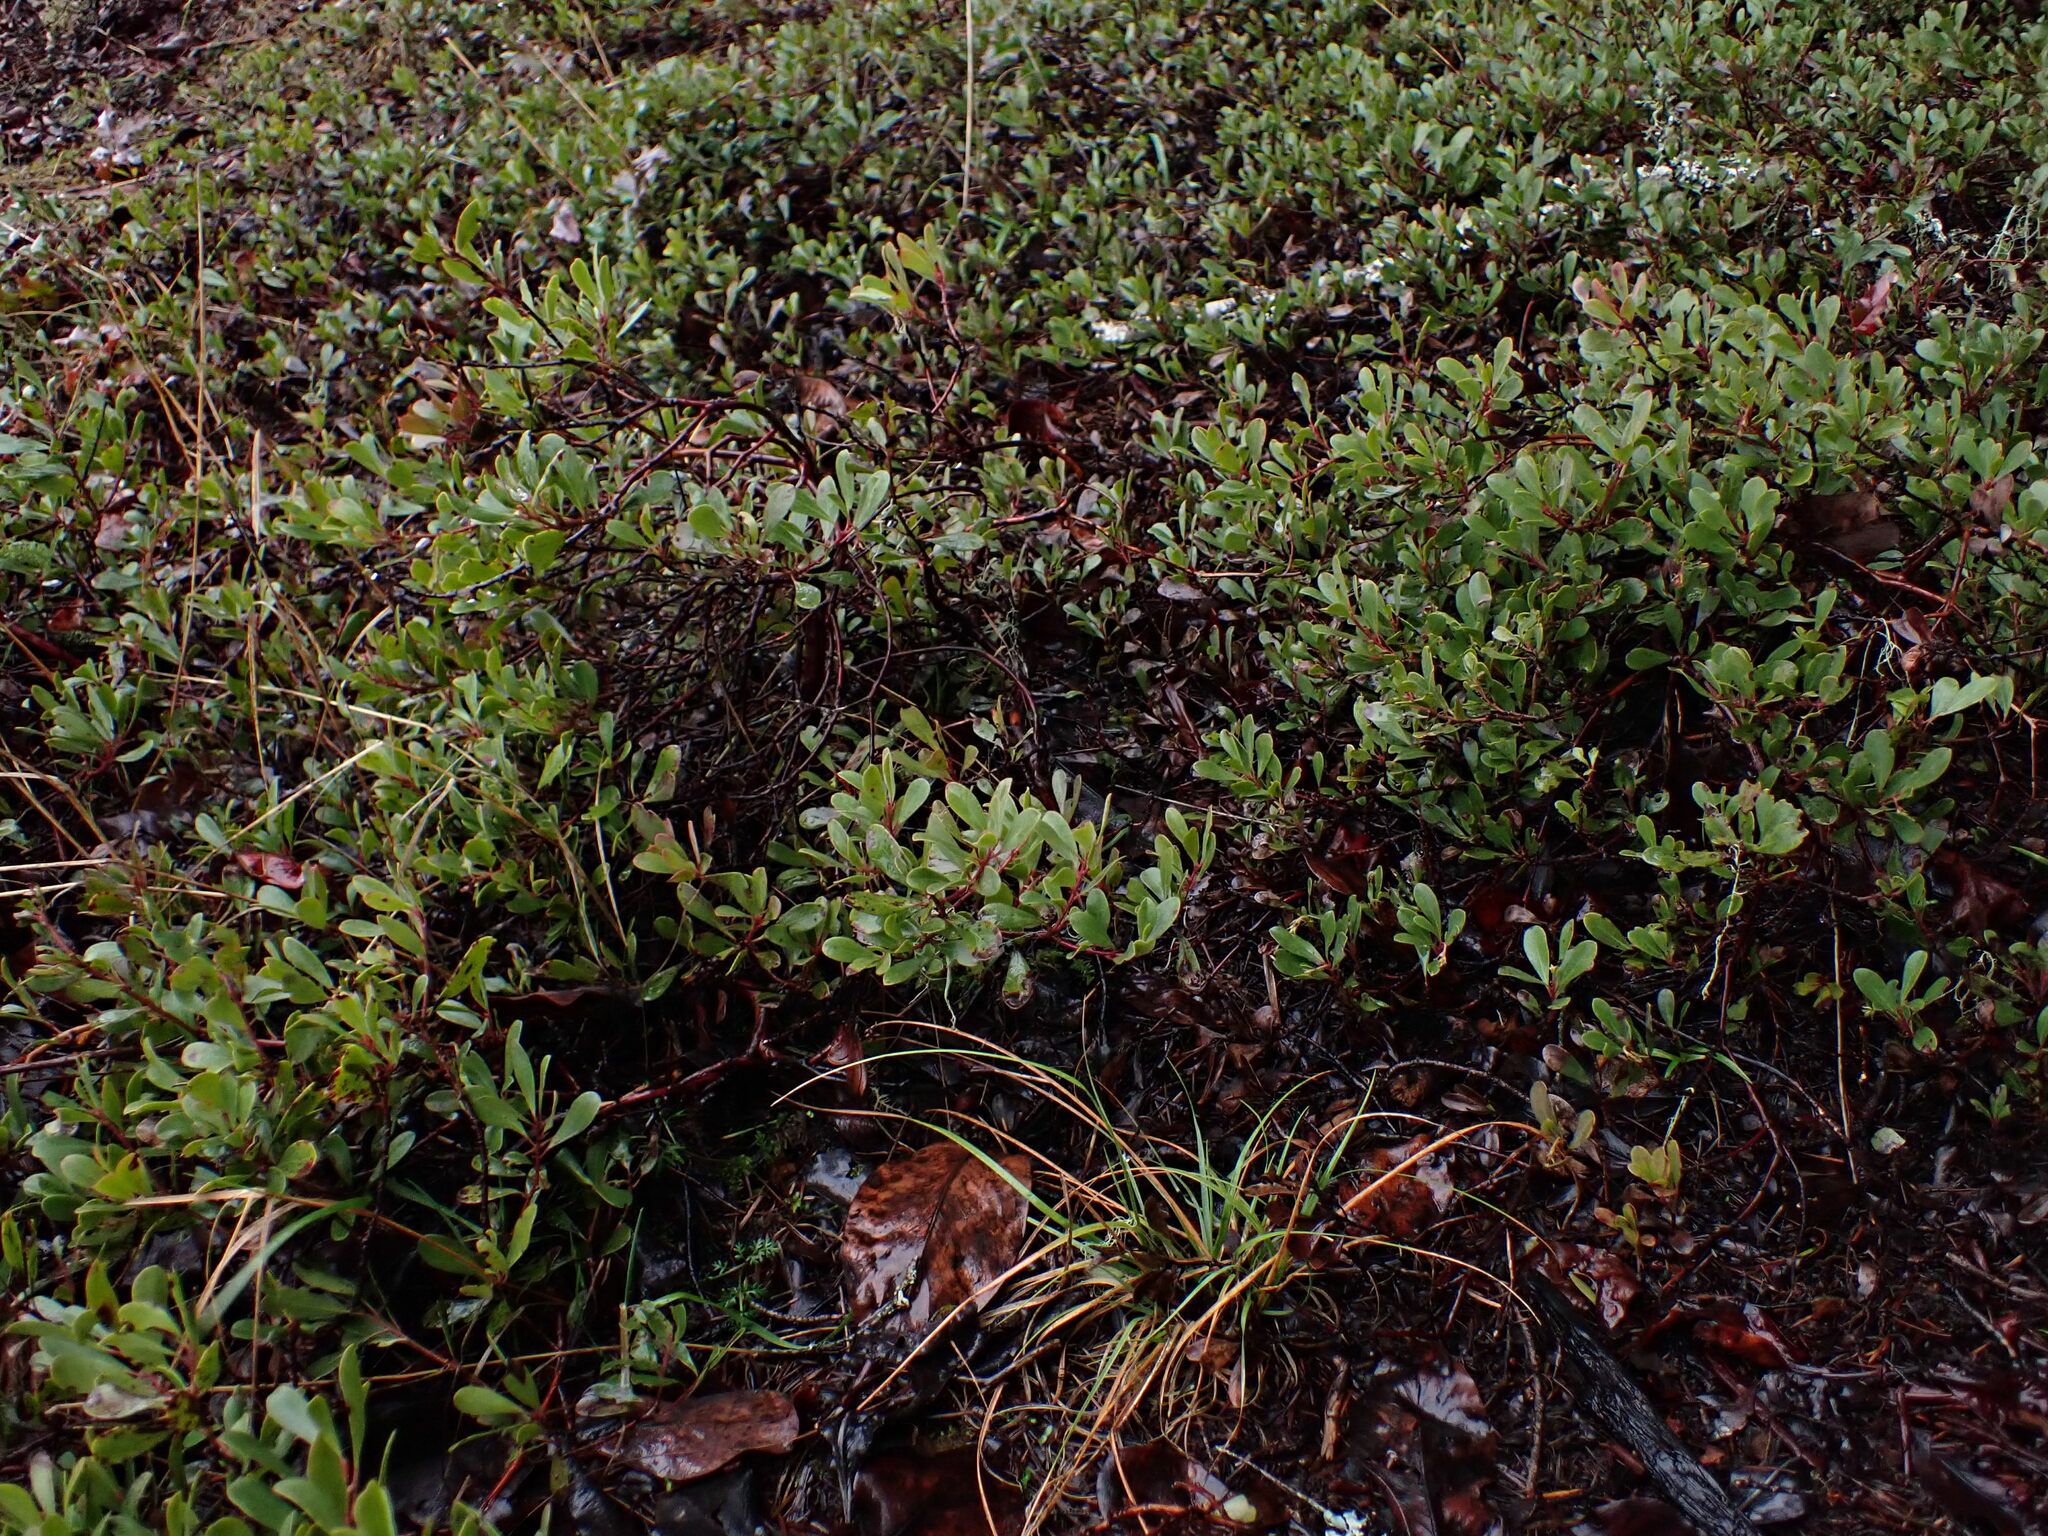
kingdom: Plantae
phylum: Tracheophyta
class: Magnoliopsida
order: Ericales
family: Ericaceae
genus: Arctostaphylos
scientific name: Arctostaphylos uva-ursi
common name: Bearberry
